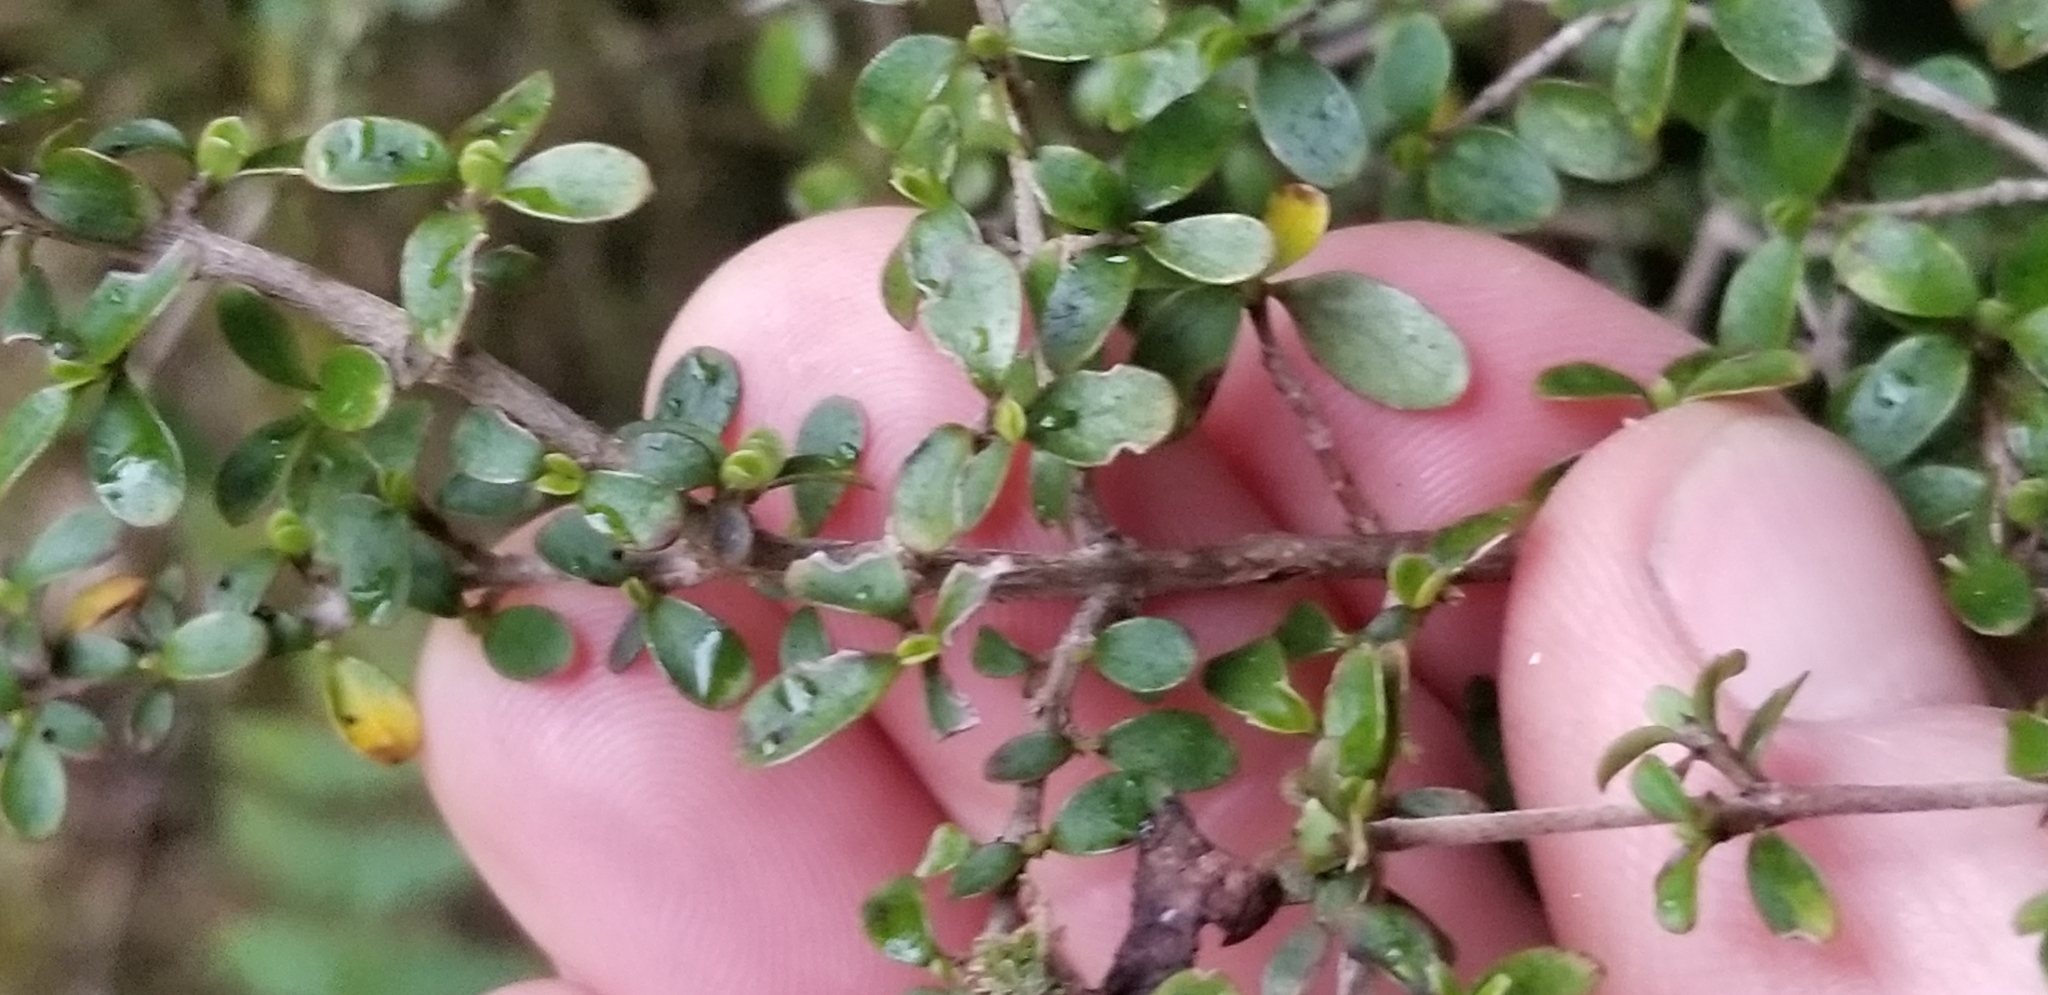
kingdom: Plantae
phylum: Tracheophyta
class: Magnoliopsida
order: Gentianales
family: Rubiaceae
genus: Coprosma
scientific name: Coprosma dumosa
